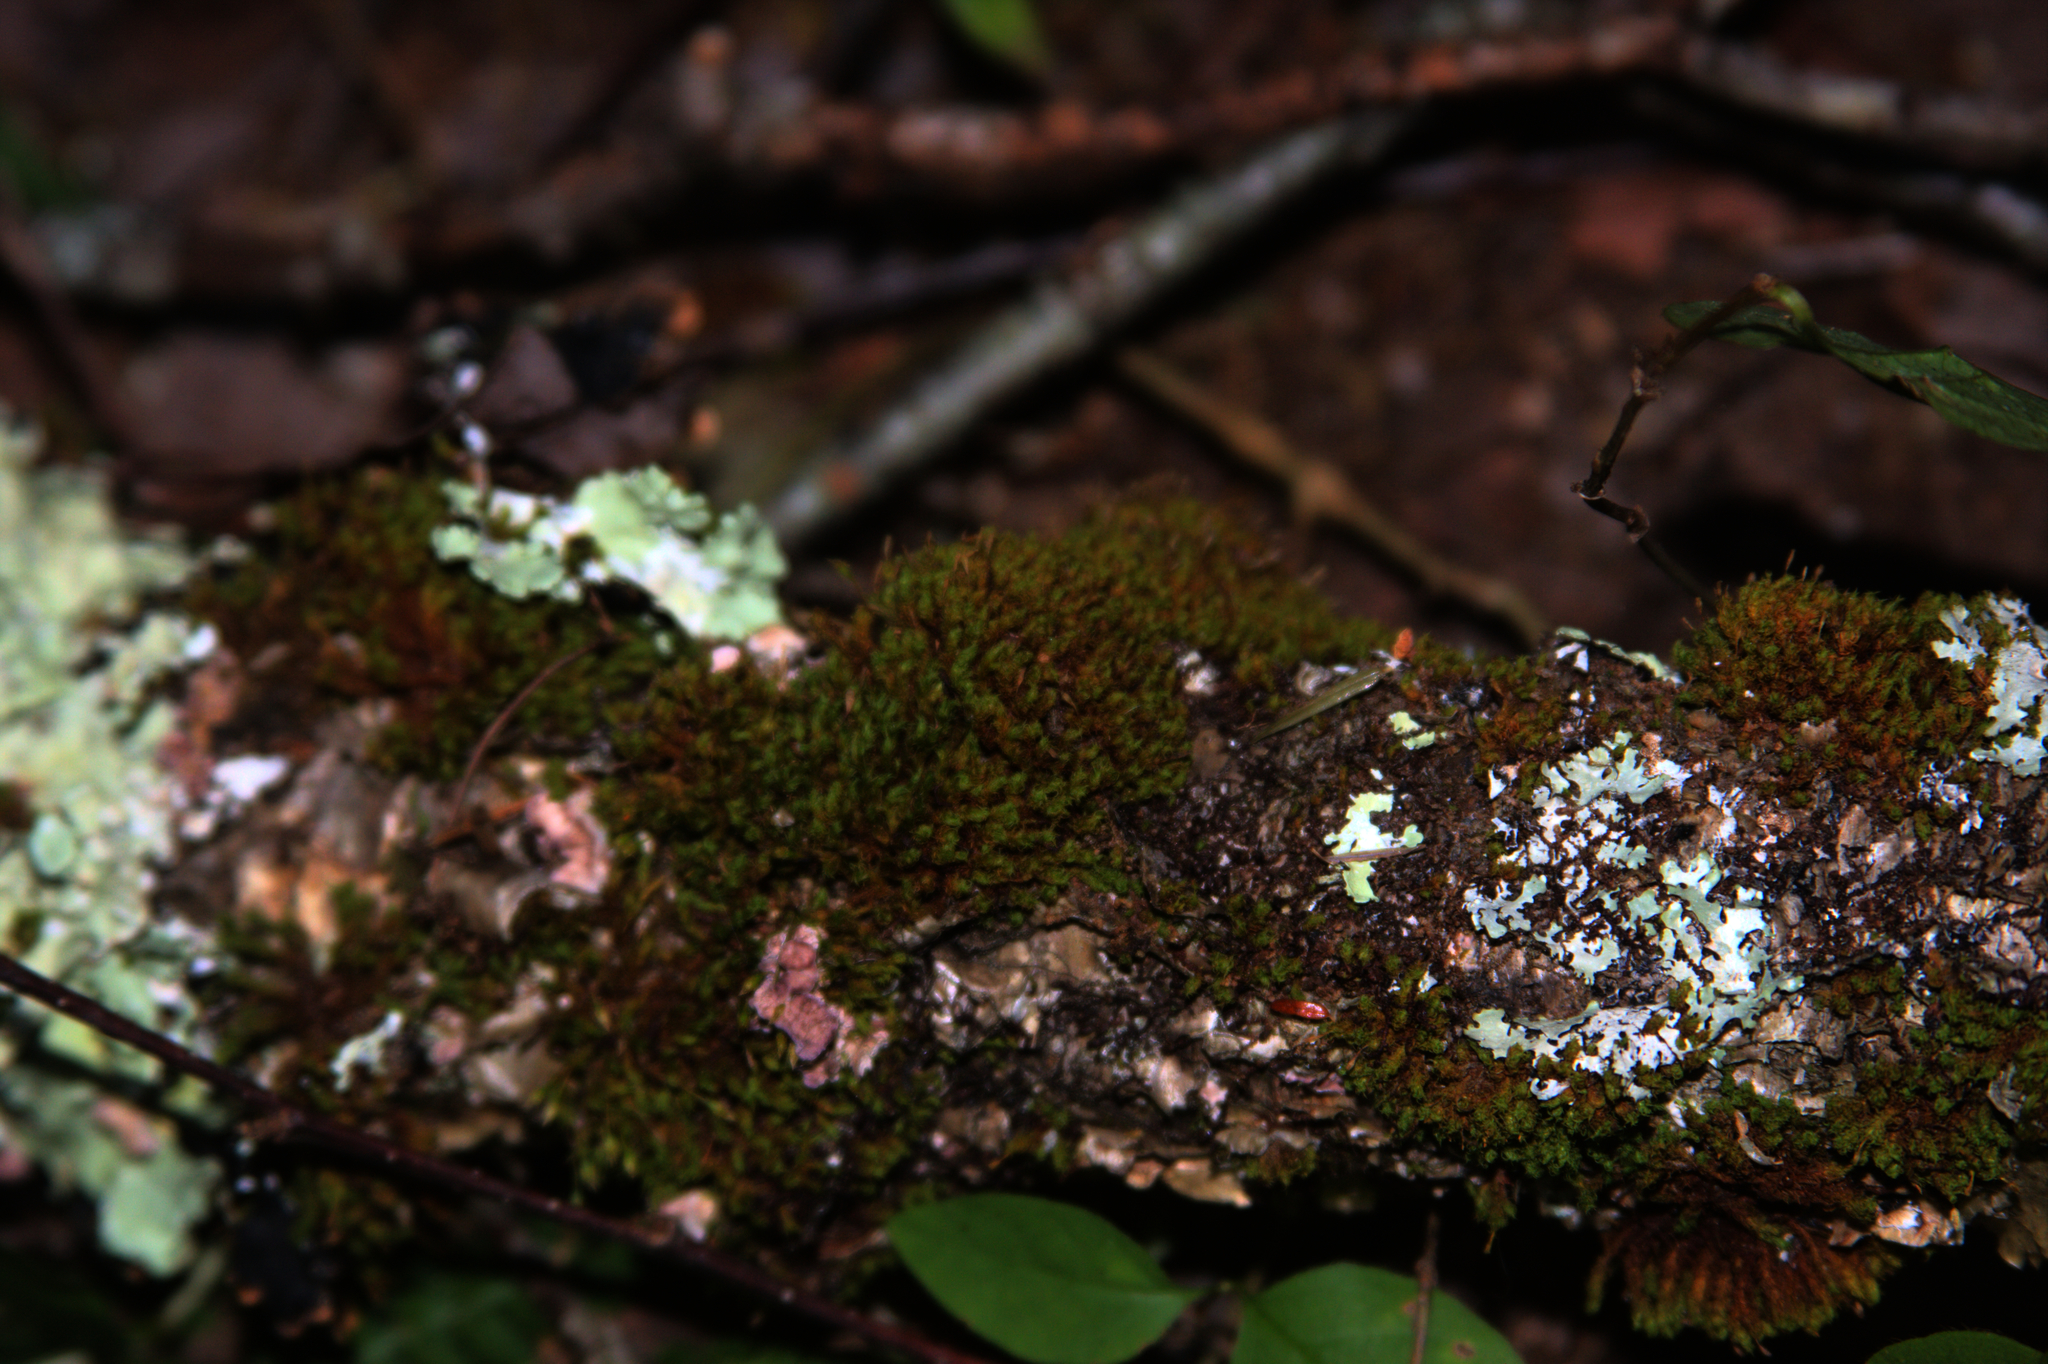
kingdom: Plantae
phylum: Bryophyta
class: Bryopsida
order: Orthotrichales
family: Orthotrichaceae
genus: Ulota
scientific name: Ulota crispa
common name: Crisped pincushion moss
